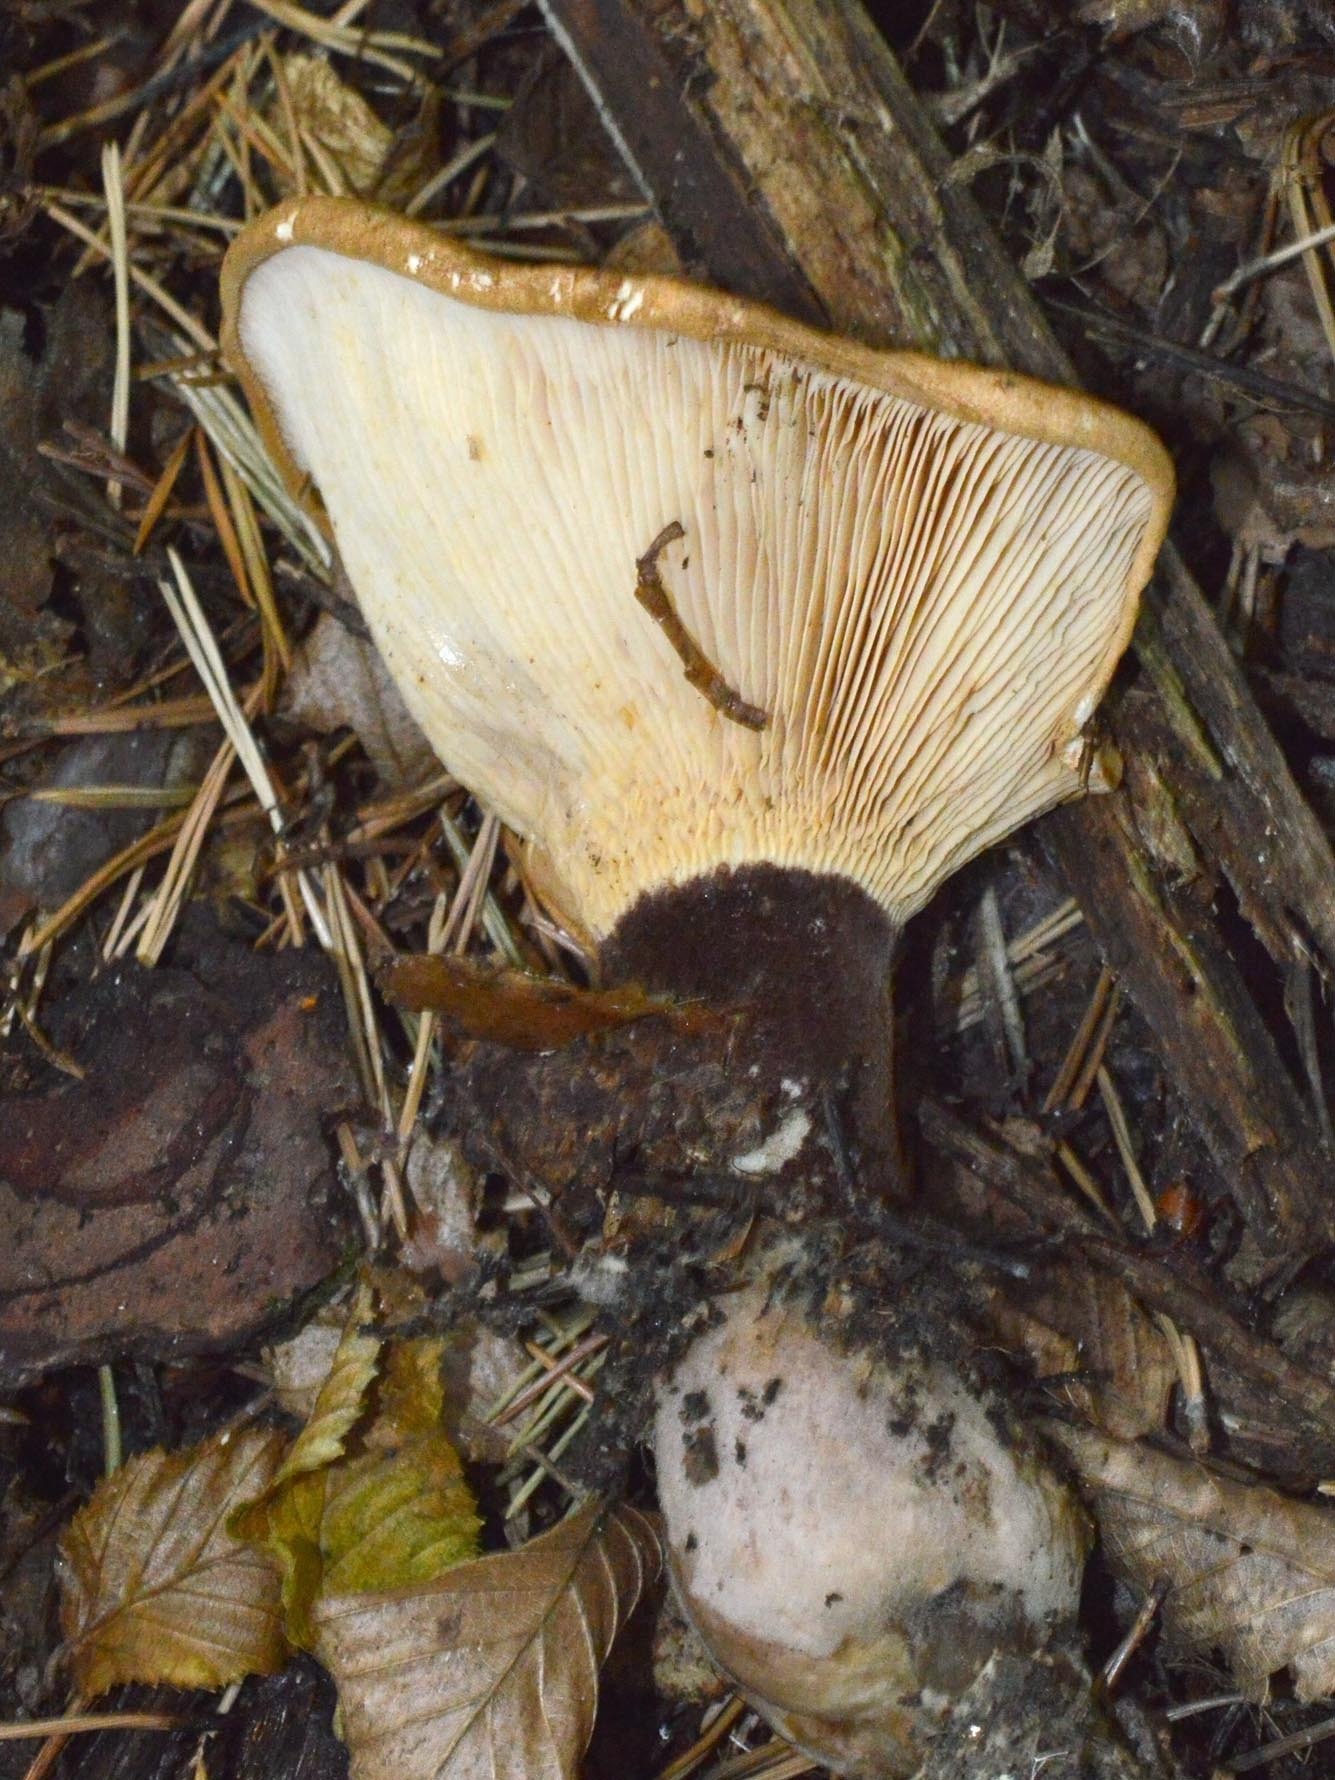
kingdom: Fungi
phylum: Basidiomycota
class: Agaricomycetes
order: Boletales
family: Tapinellaceae
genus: Tapinella
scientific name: Tapinella atrotomentosa
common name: Velvet rollrim
